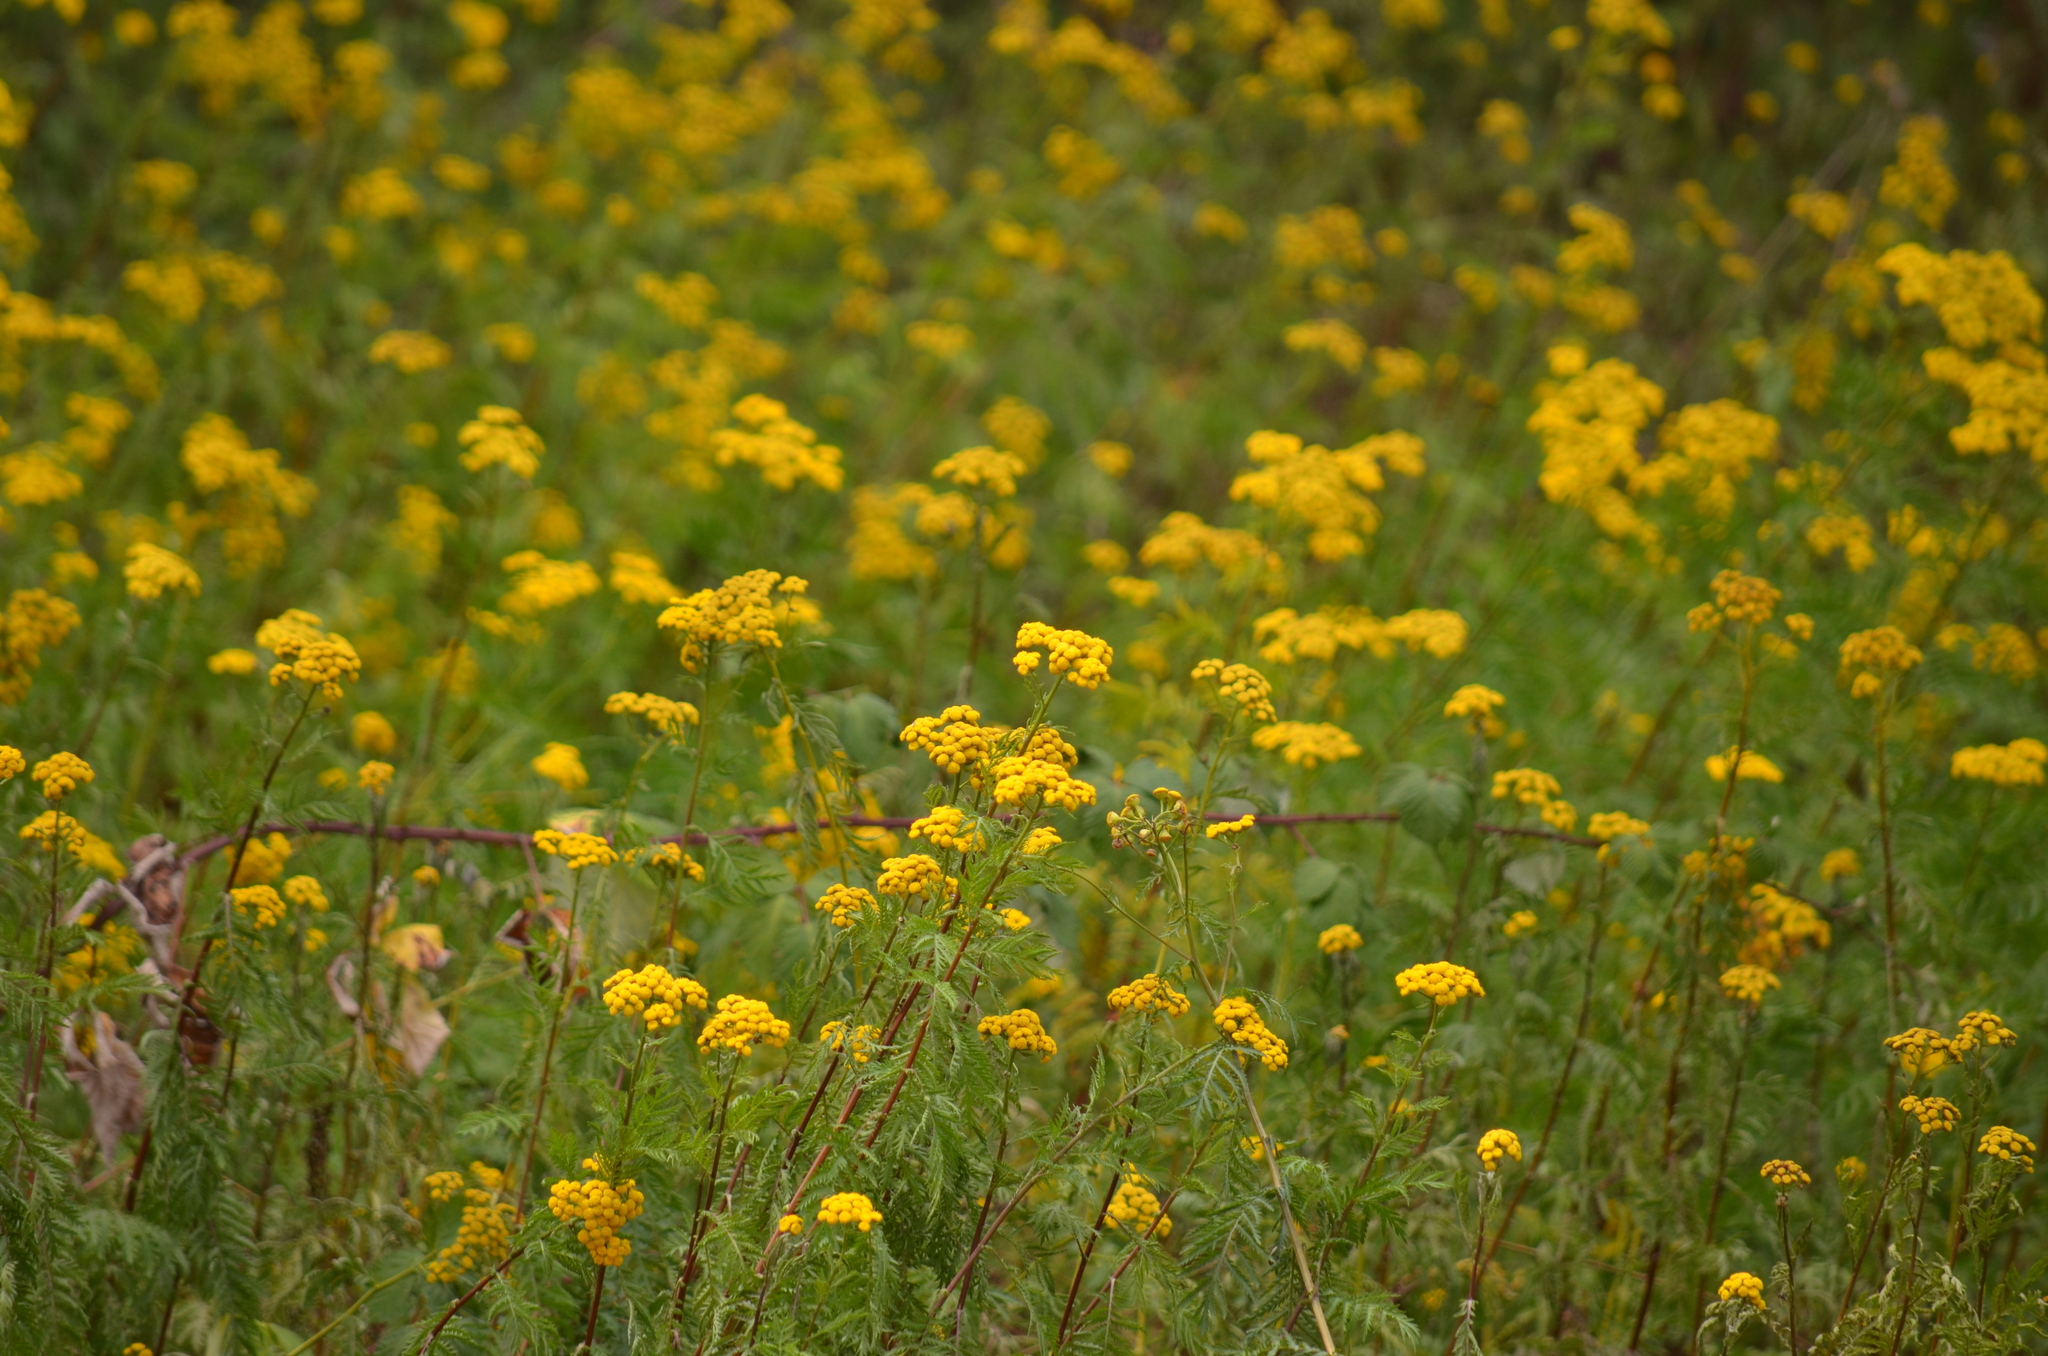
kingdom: Plantae
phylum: Tracheophyta
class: Magnoliopsida
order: Asterales
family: Asteraceae
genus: Tanacetum
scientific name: Tanacetum vulgare
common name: Common tansy
